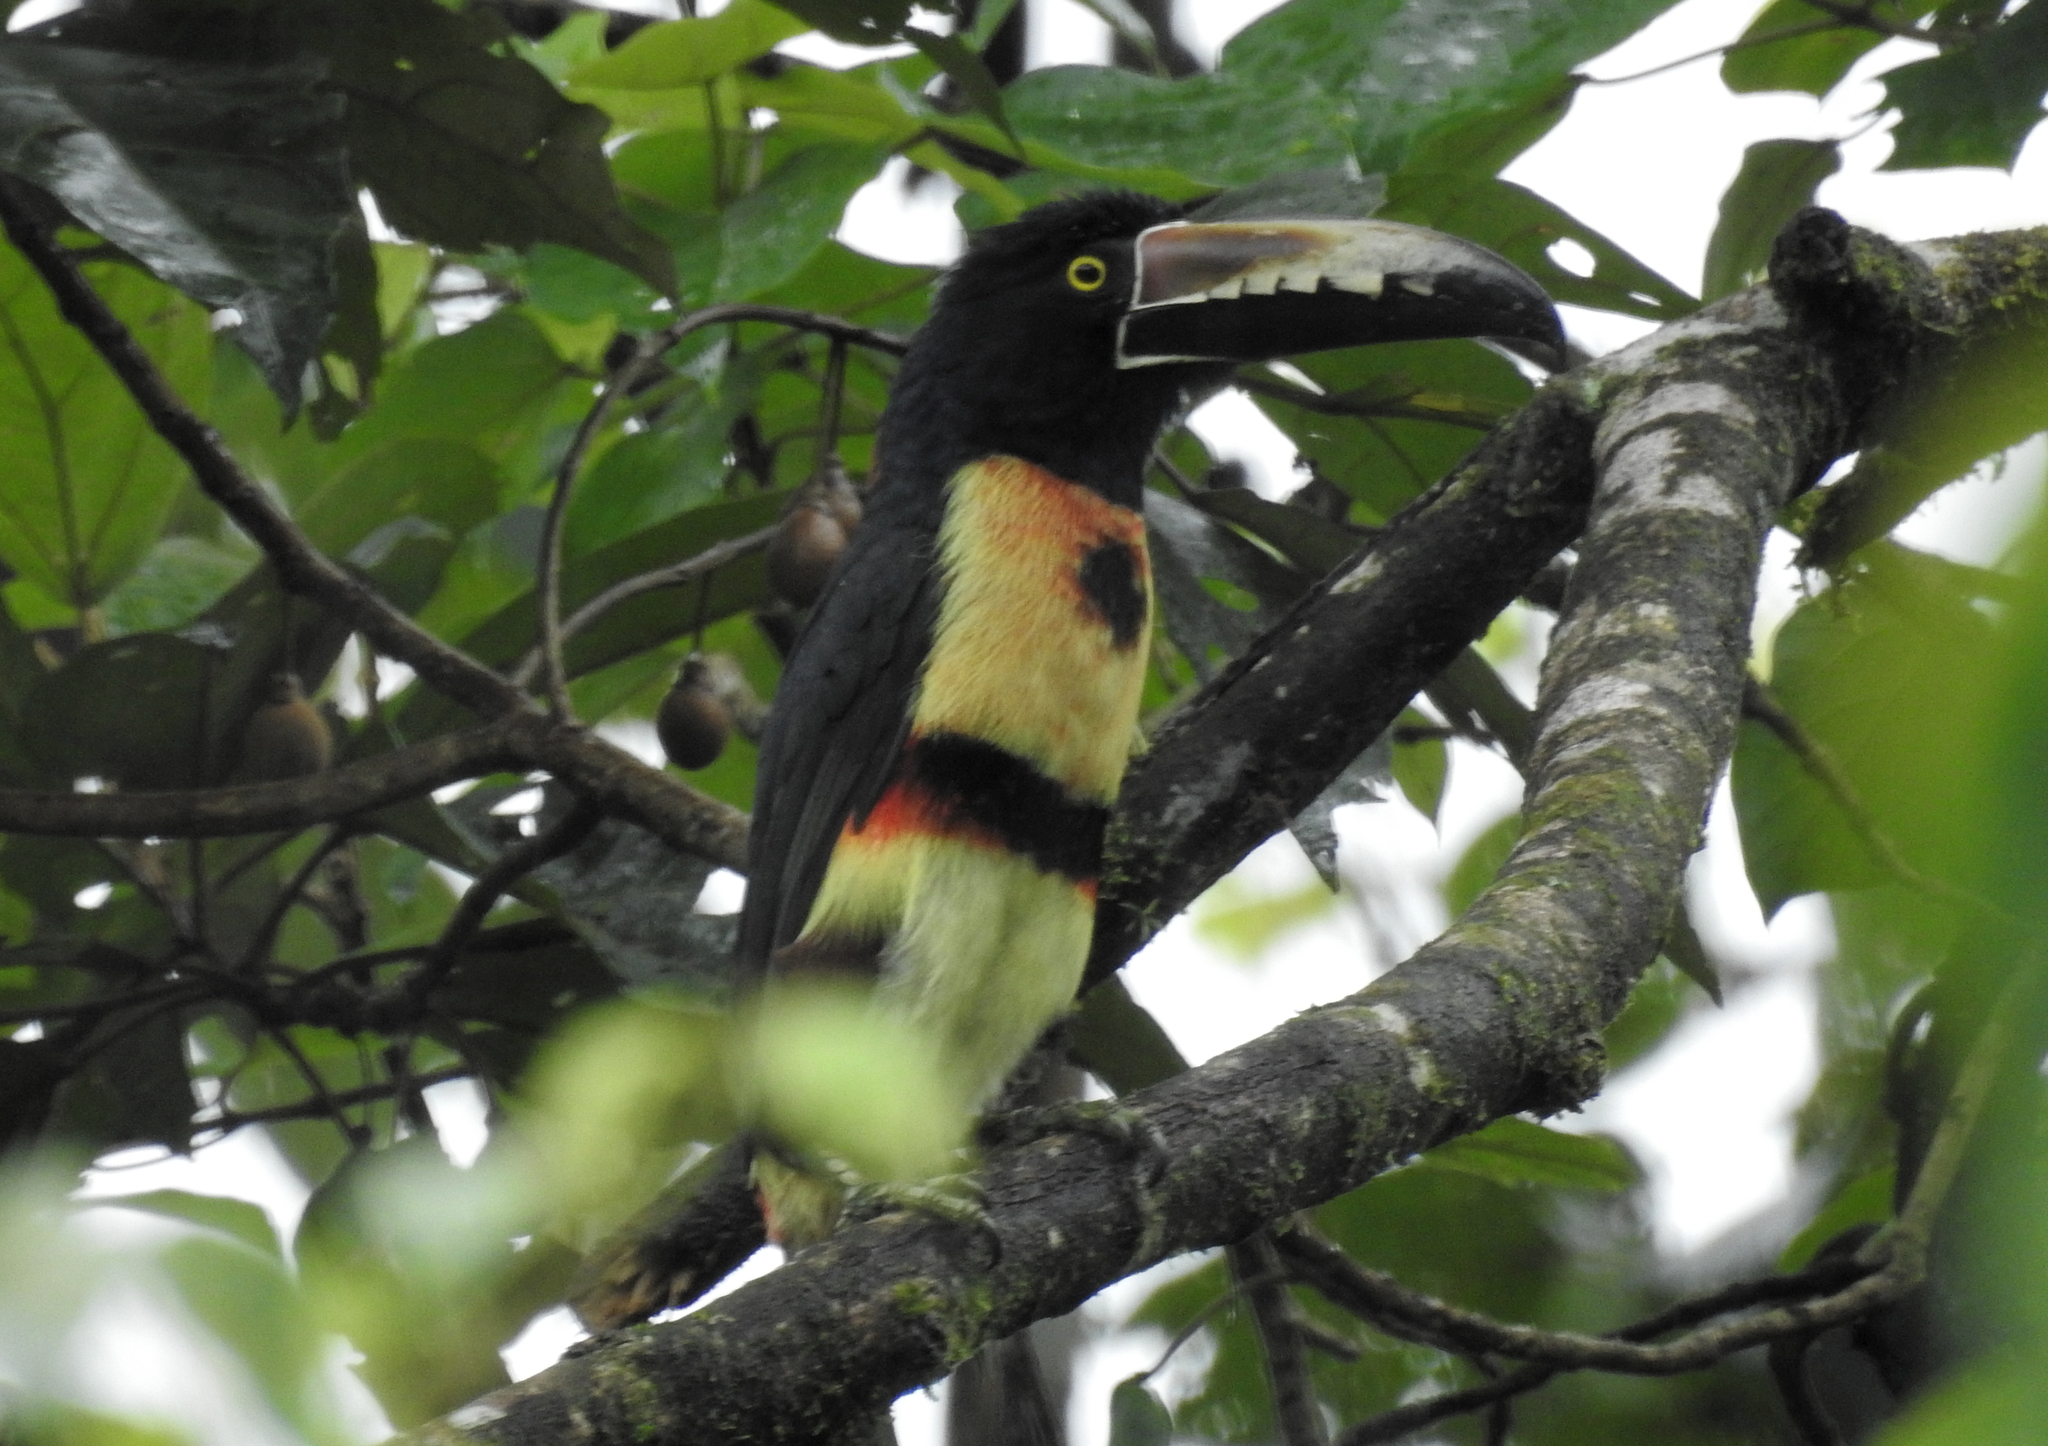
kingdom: Animalia
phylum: Chordata
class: Aves
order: Piciformes
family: Ramphastidae
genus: Pteroglossus
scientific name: Pteroglossus torquatus
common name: Collared aracari
